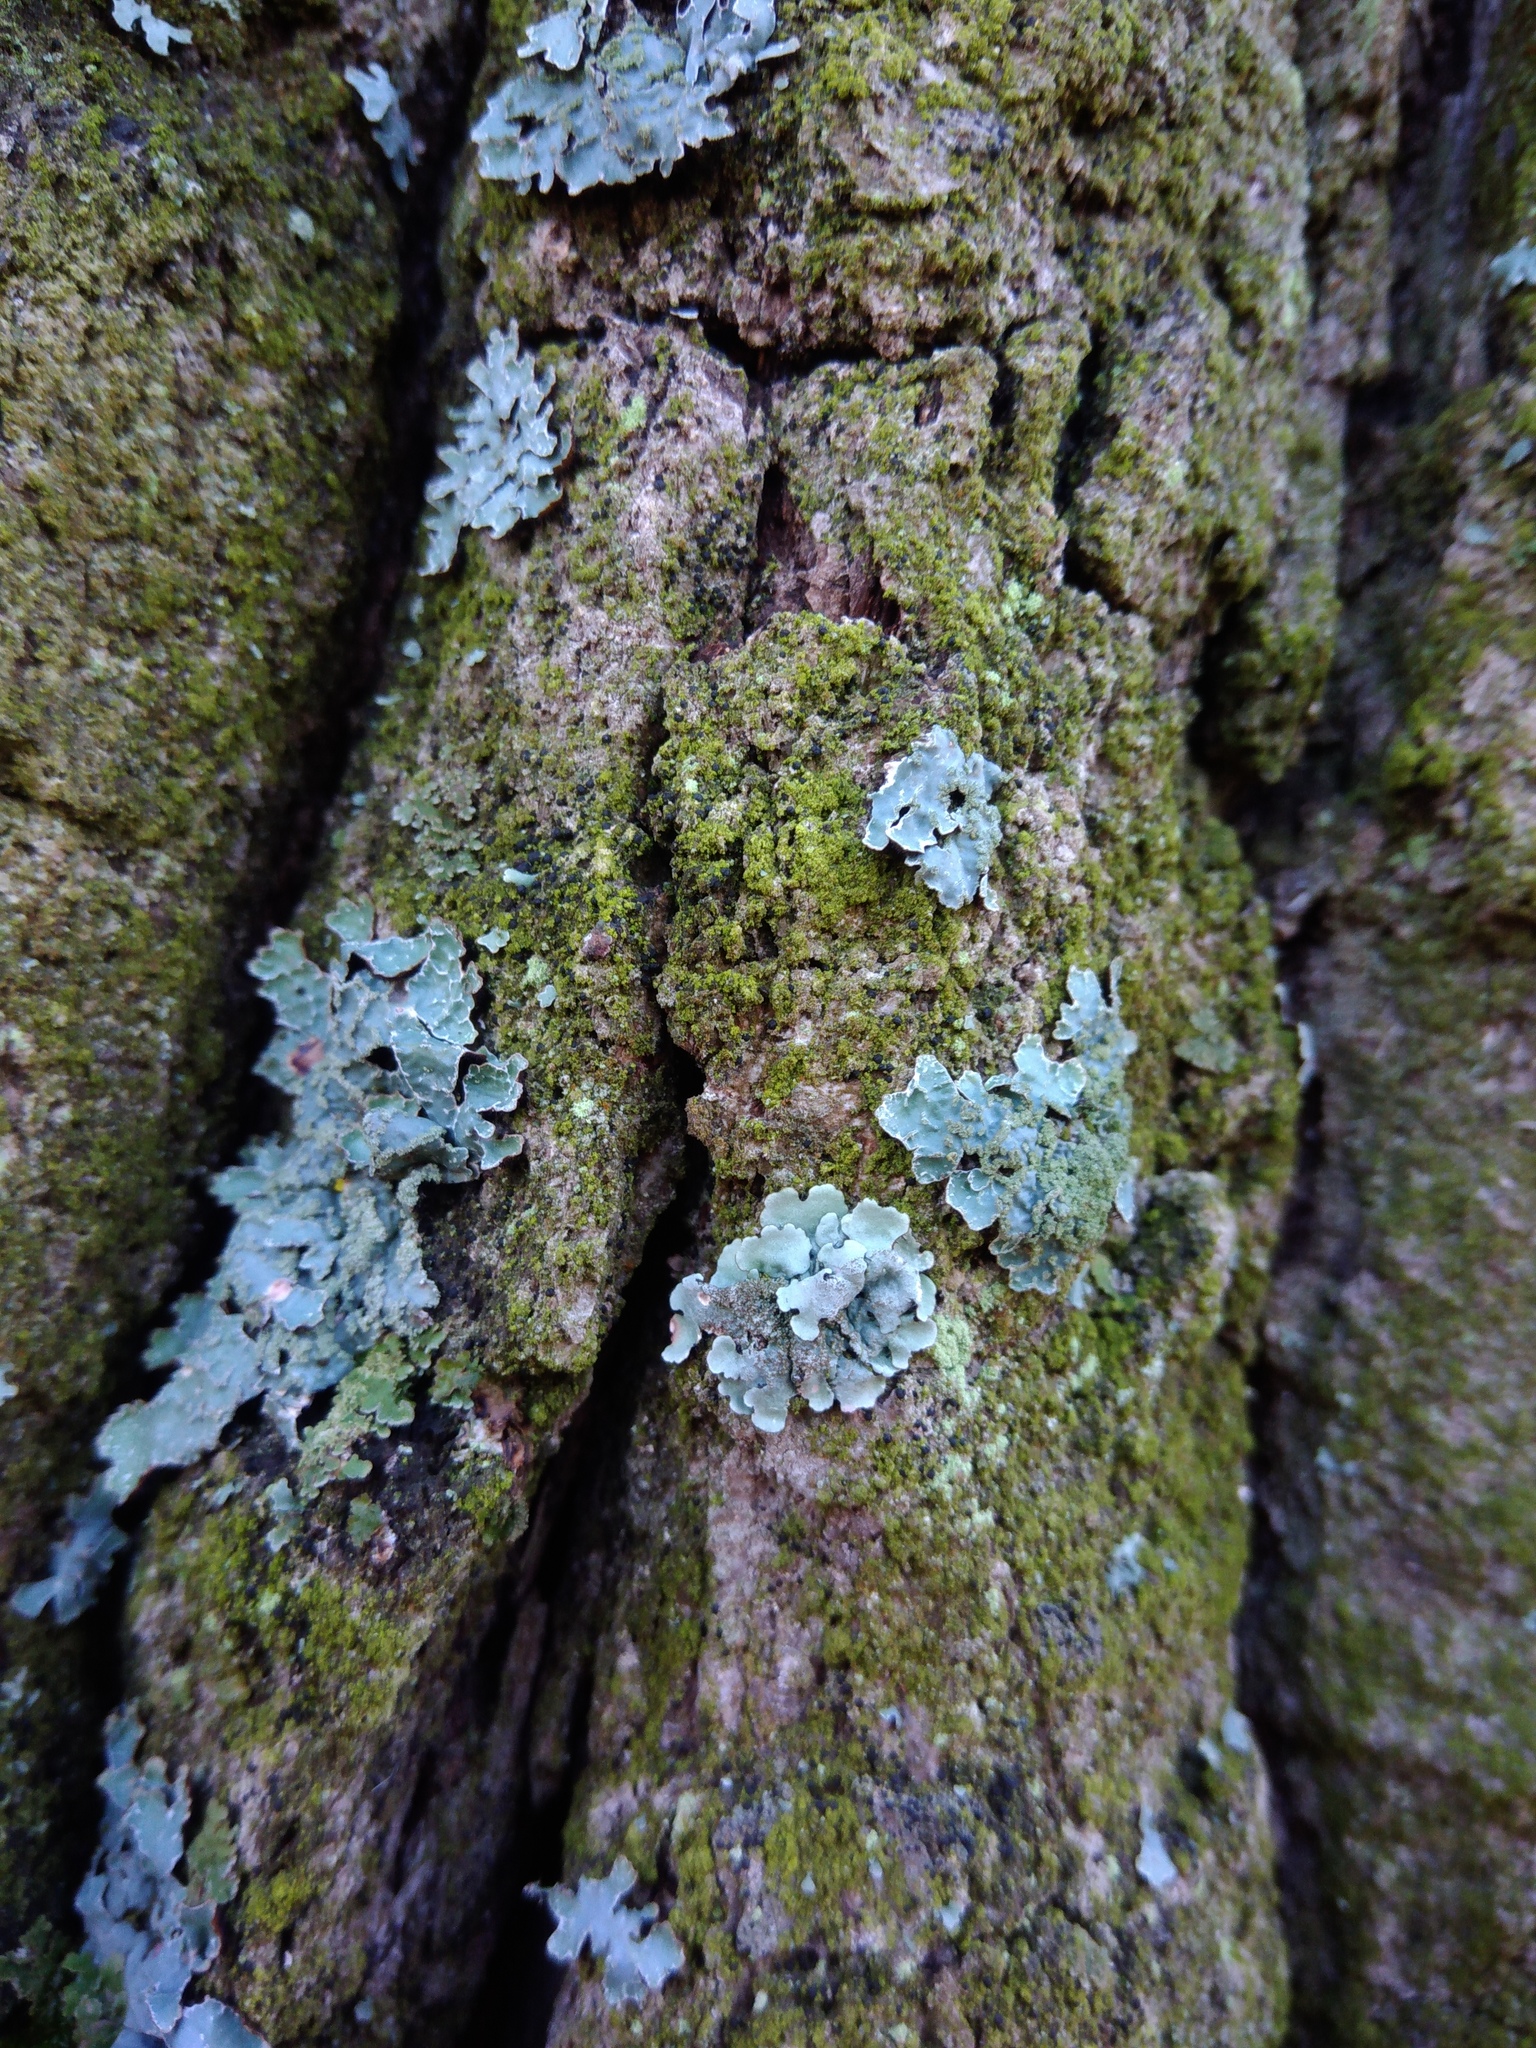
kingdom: Fungi
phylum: Ascomycota
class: Lecanoromycetes
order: Lecanorales
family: Parmeliaceae
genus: Parmelina
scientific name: Parmelina tiliacea
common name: Linden shield lichen
